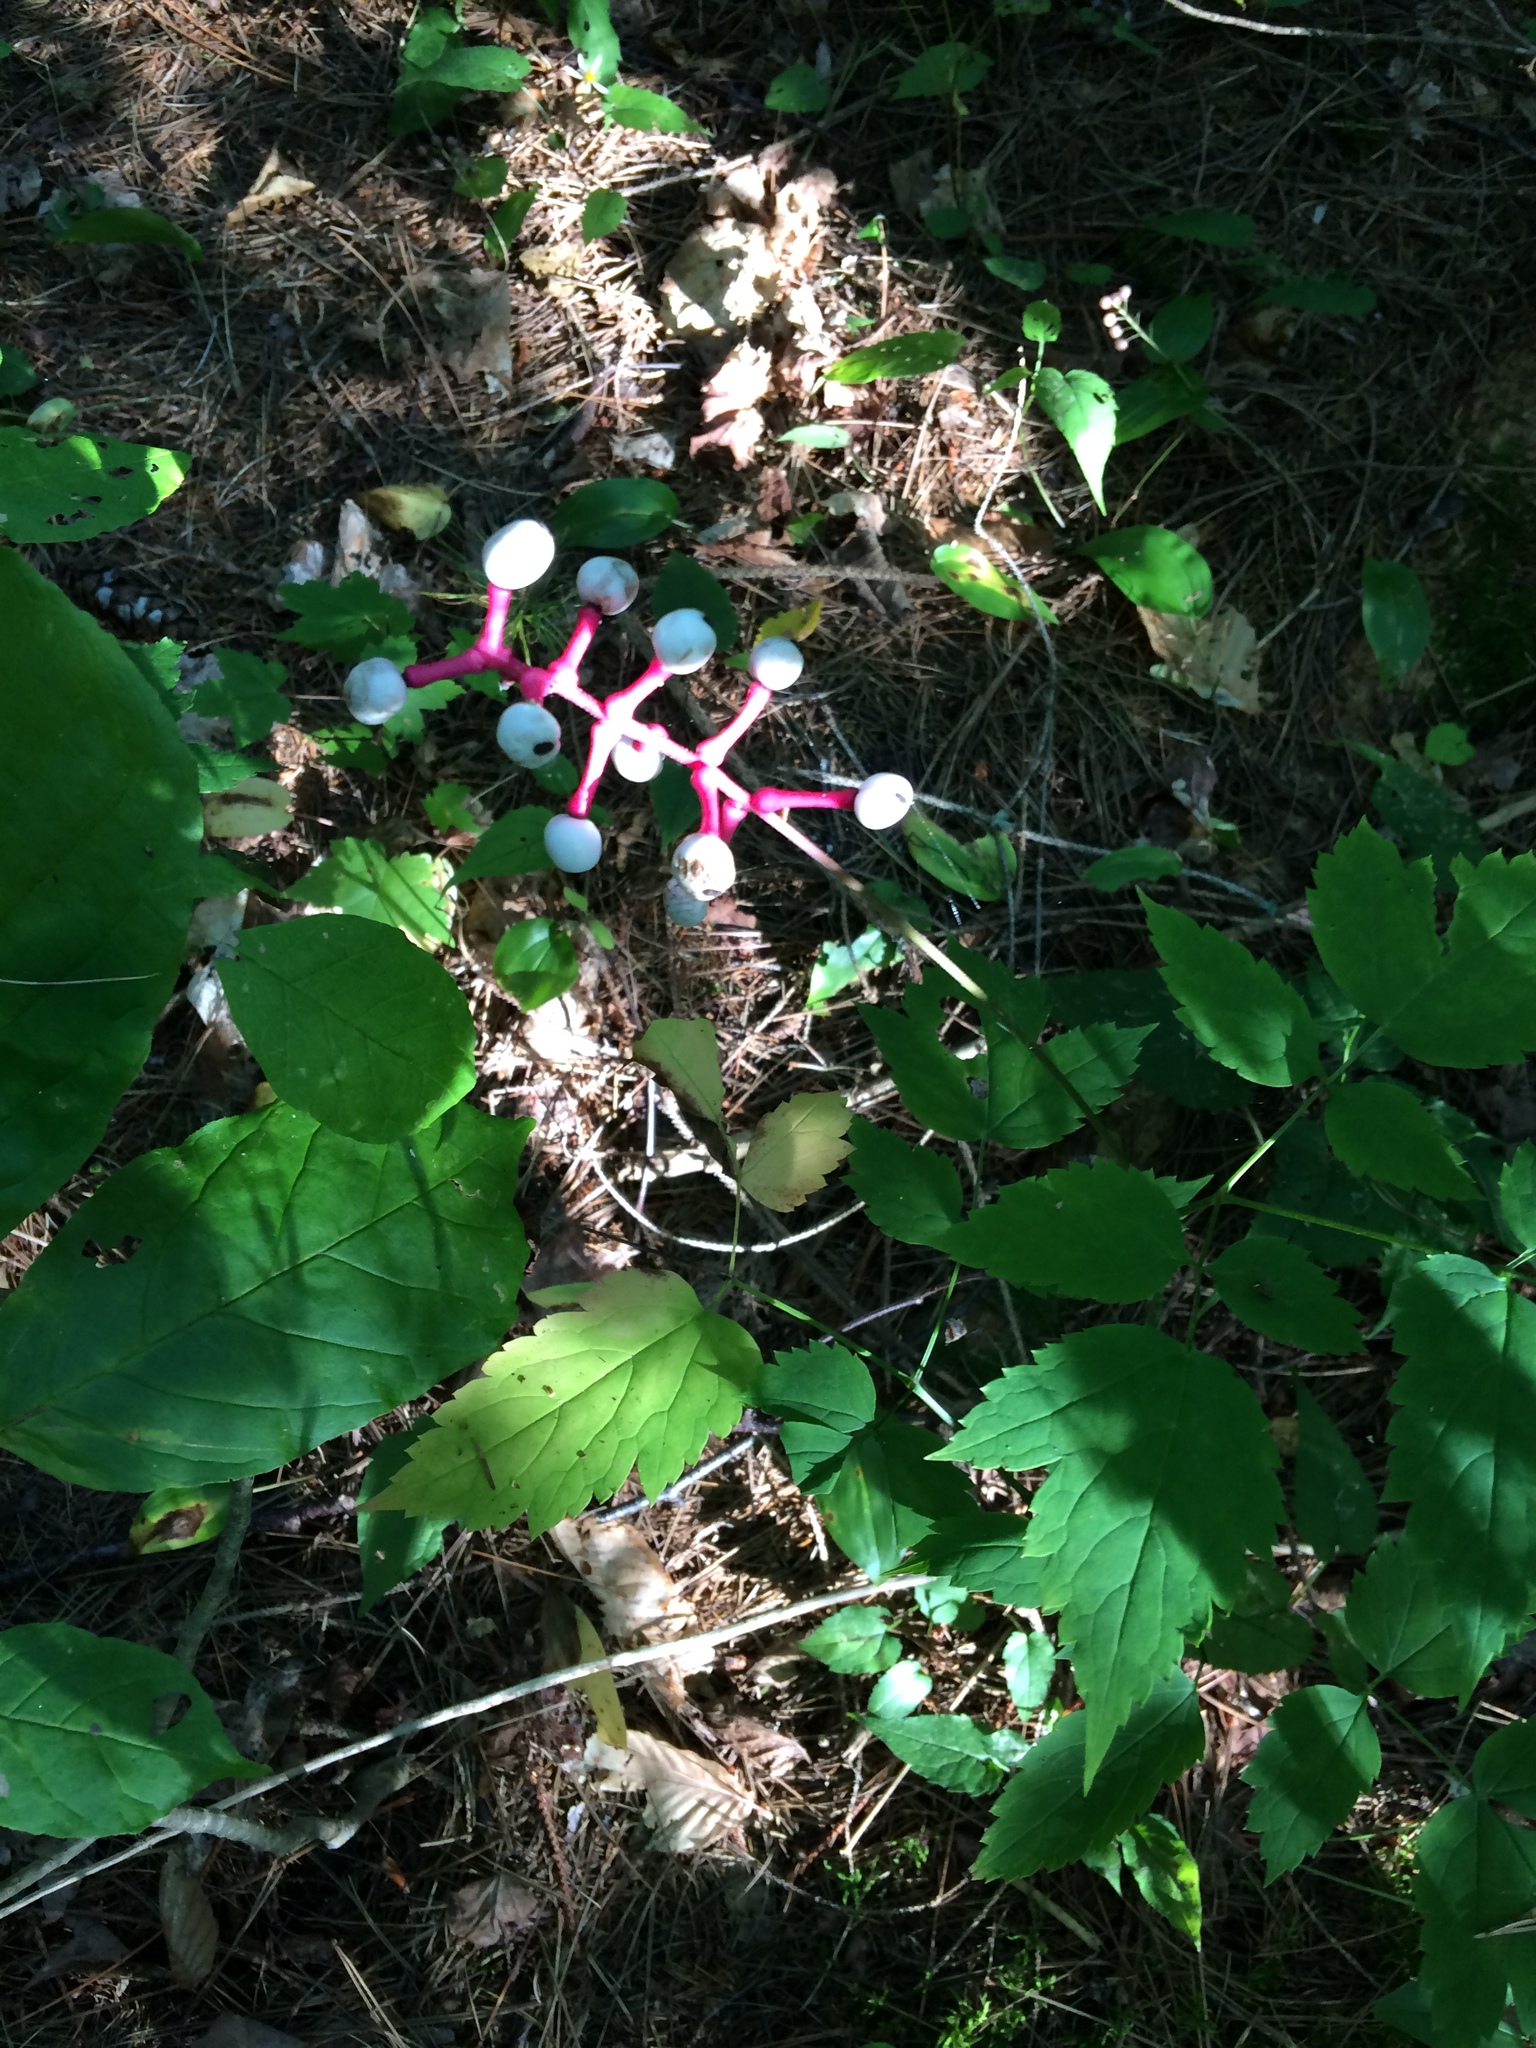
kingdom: Plantae
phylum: Tracheophyta
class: Magnoliopsida
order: Ranunculales
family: Ranunculaceae
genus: Actaea
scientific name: Actaea pachypoda
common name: Doll's-eyes
